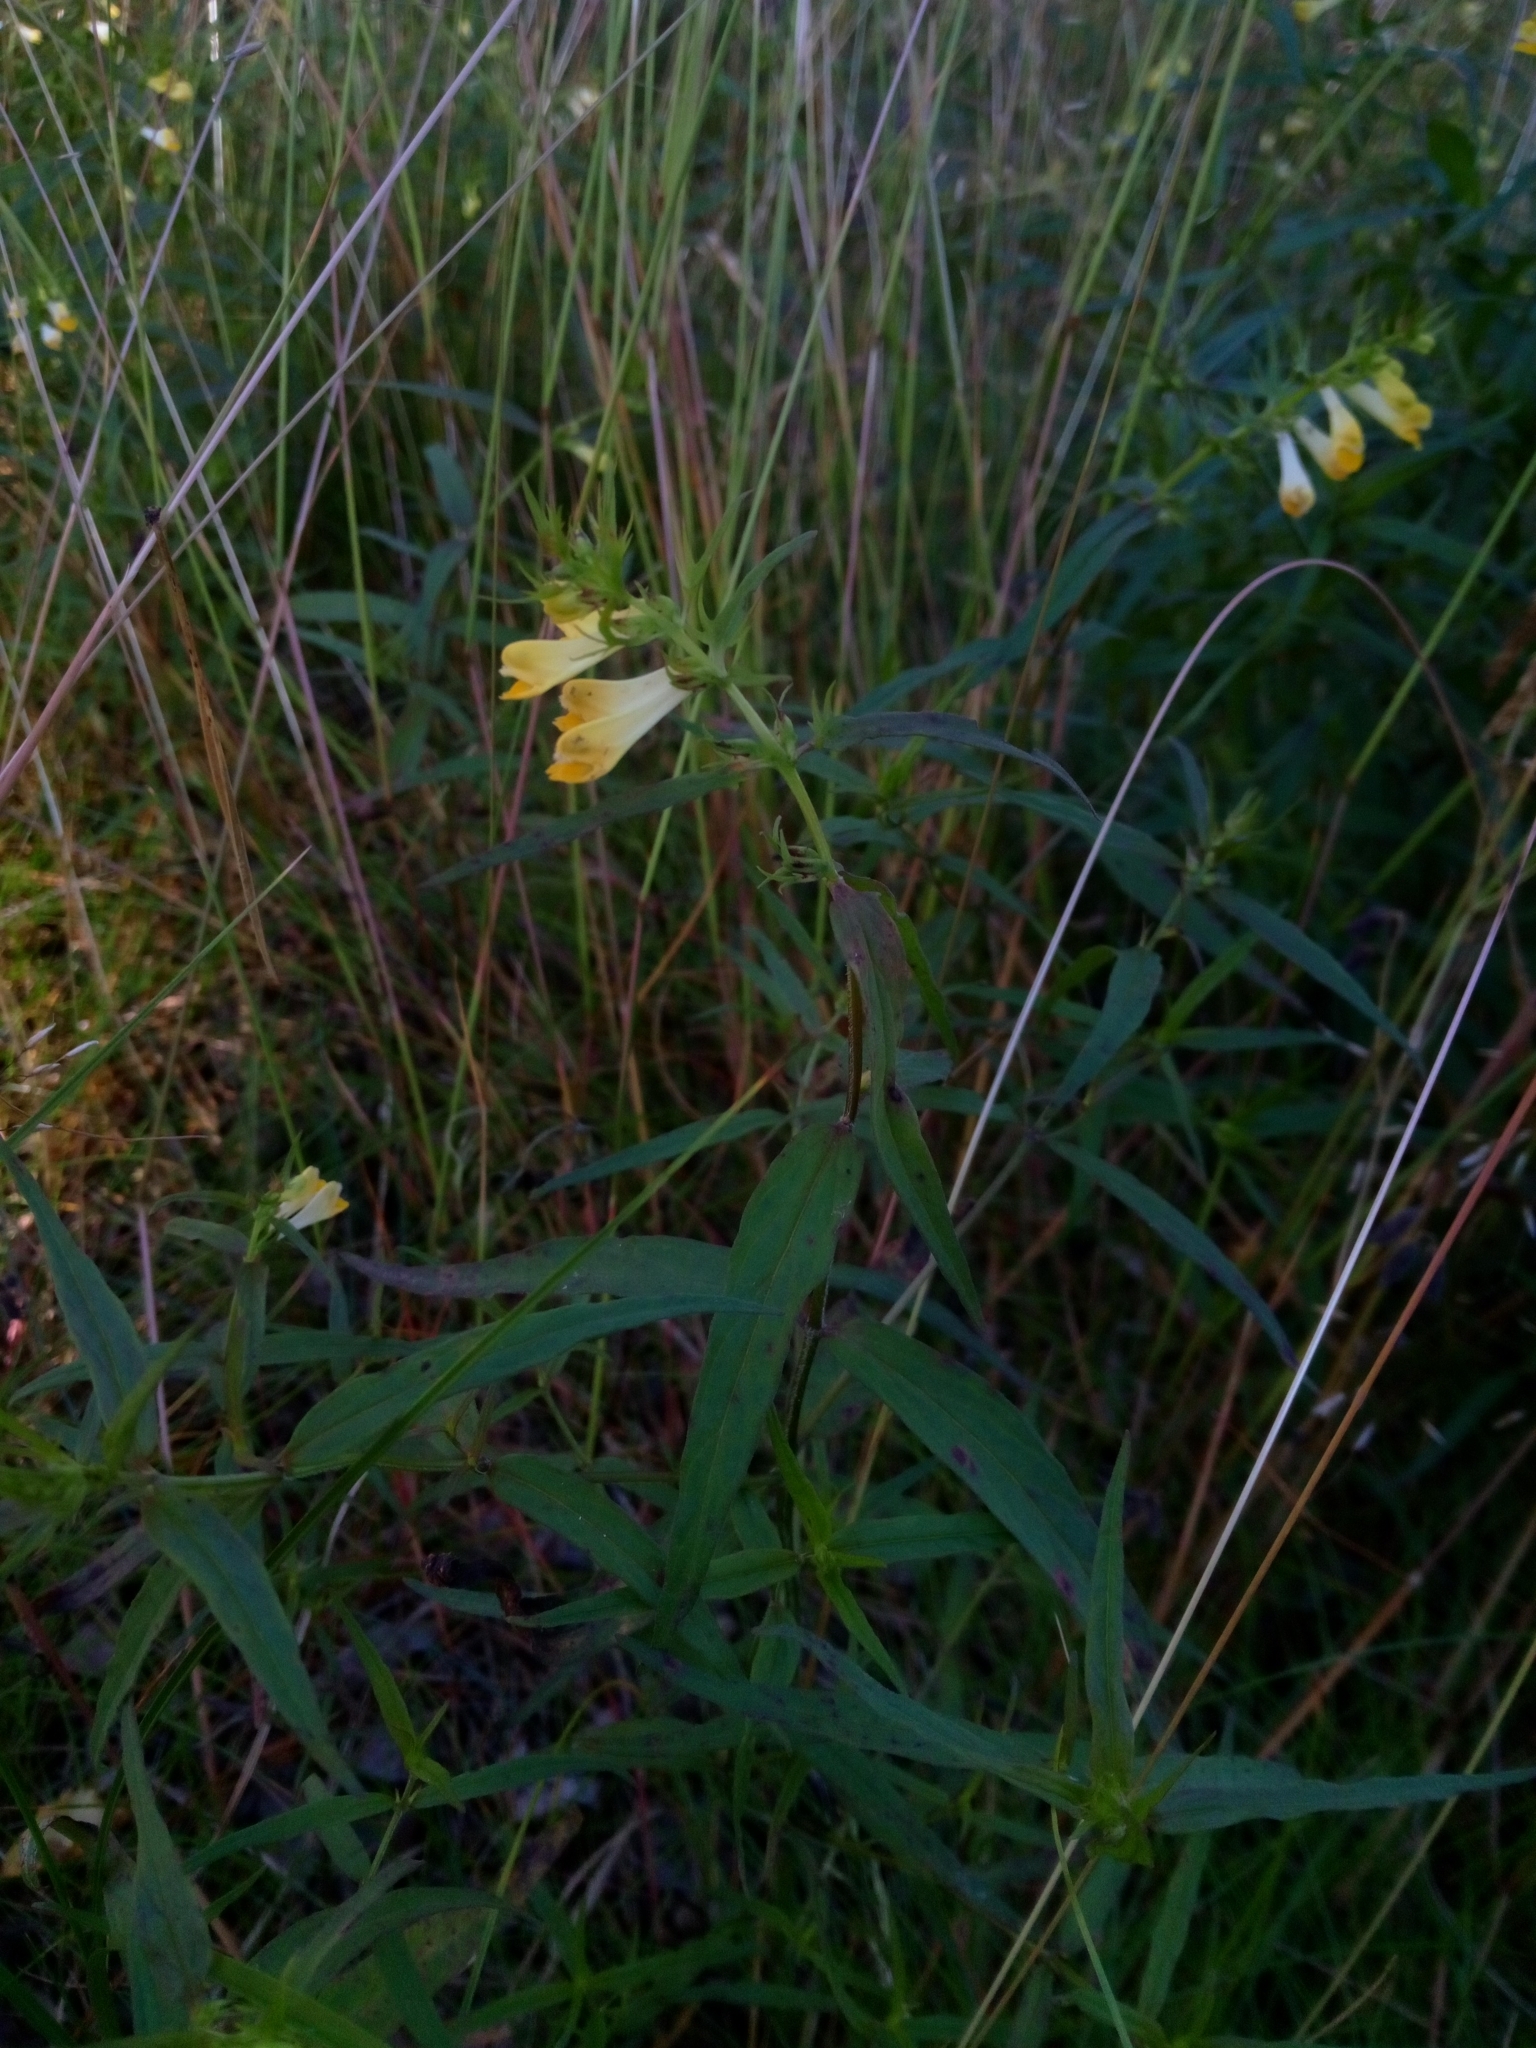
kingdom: Plantae
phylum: Tracheophyta
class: Magnoliopsida
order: Lamiales
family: Orobanchaceae
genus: Melampyrum
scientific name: Melampyrum pratense
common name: Common cow-wheat
